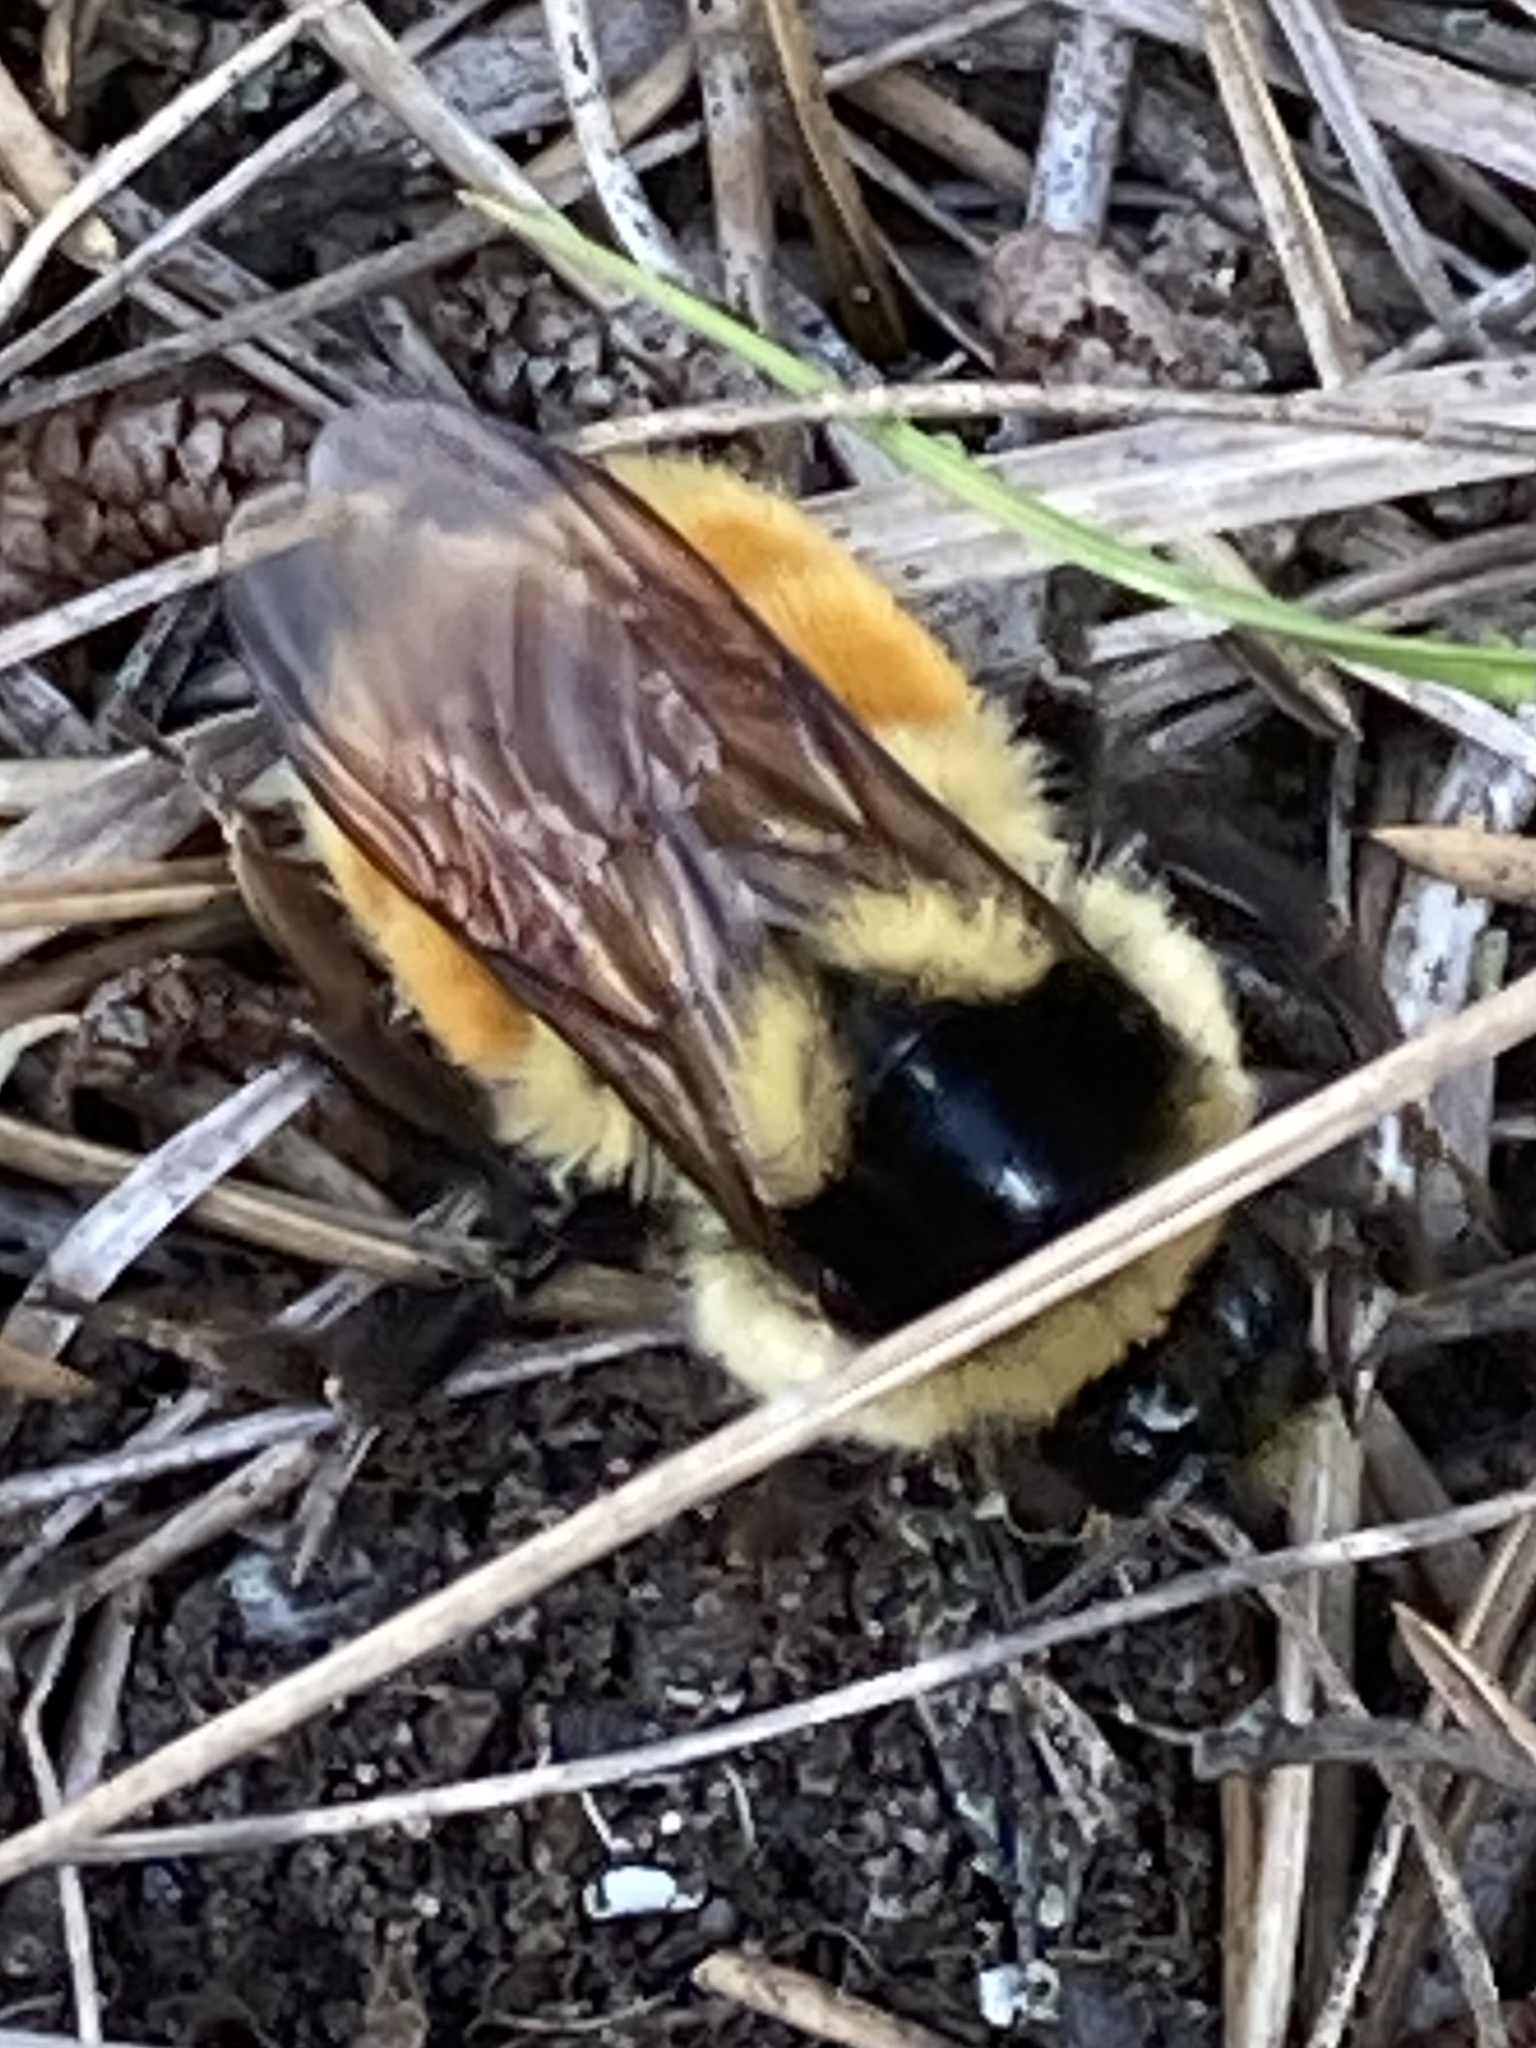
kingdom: Animalia
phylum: Arthropoda
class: Insecta
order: Hymenoptera
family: Apidae
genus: Bombus
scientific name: Bombus ternarius
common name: Tri-colored bumble bee
